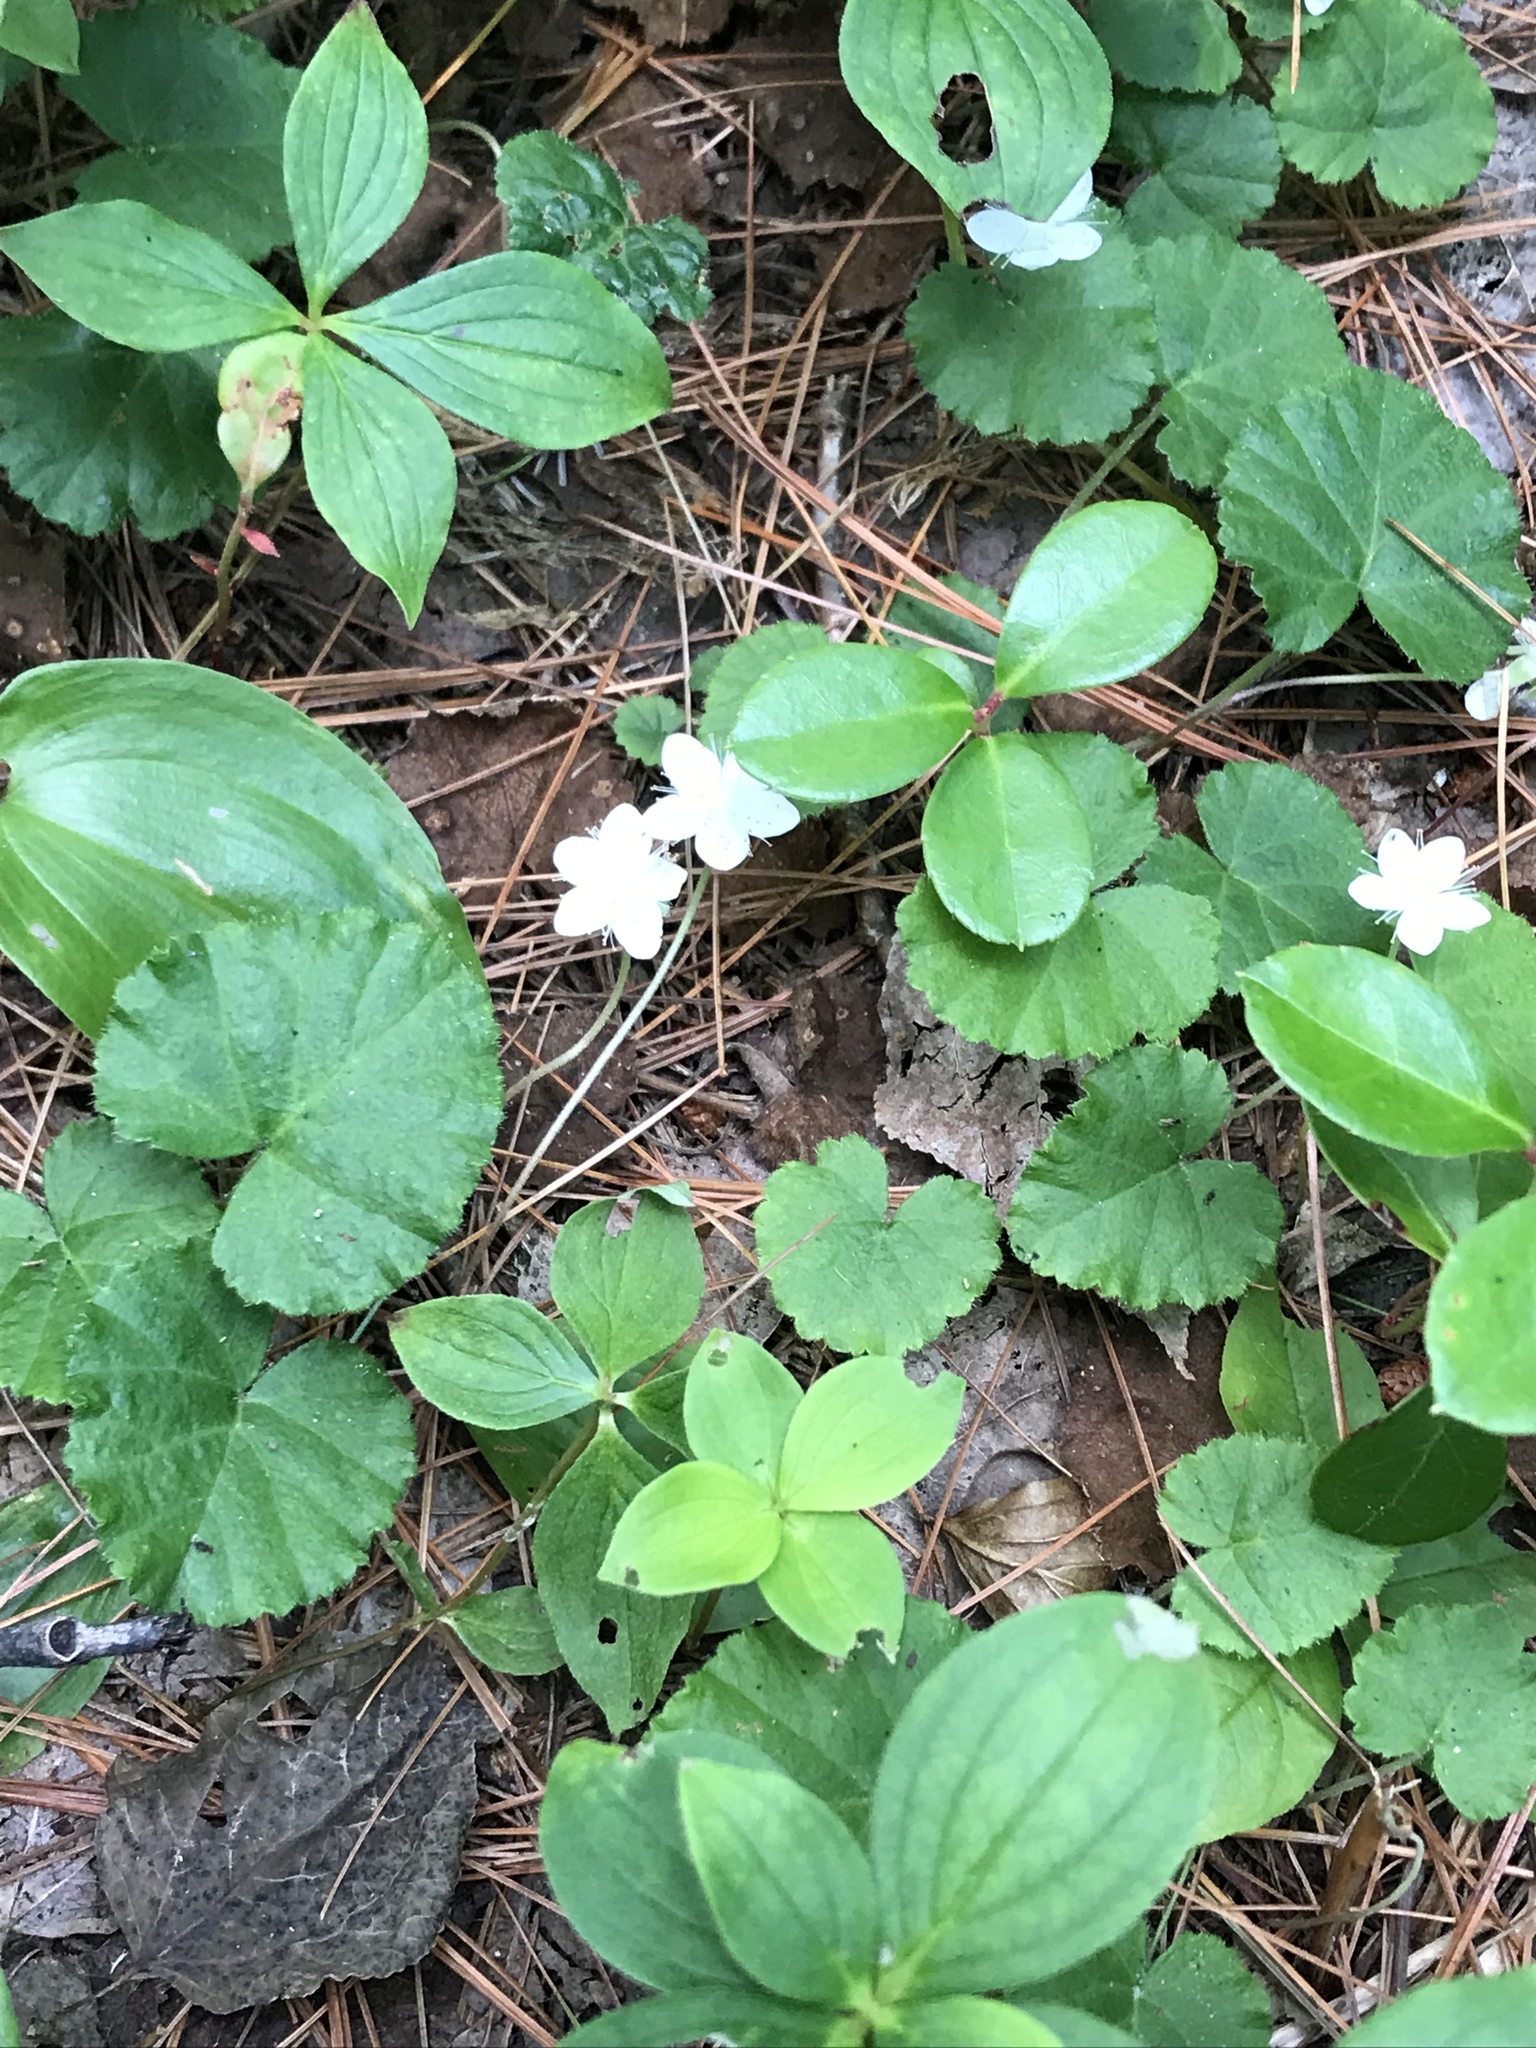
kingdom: Plantae
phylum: Tracheophyta
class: Magnoliopsida
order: Rosales
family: Rosaceae
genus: Dalibarda
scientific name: Dalibarda repens
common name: Dewdrop
